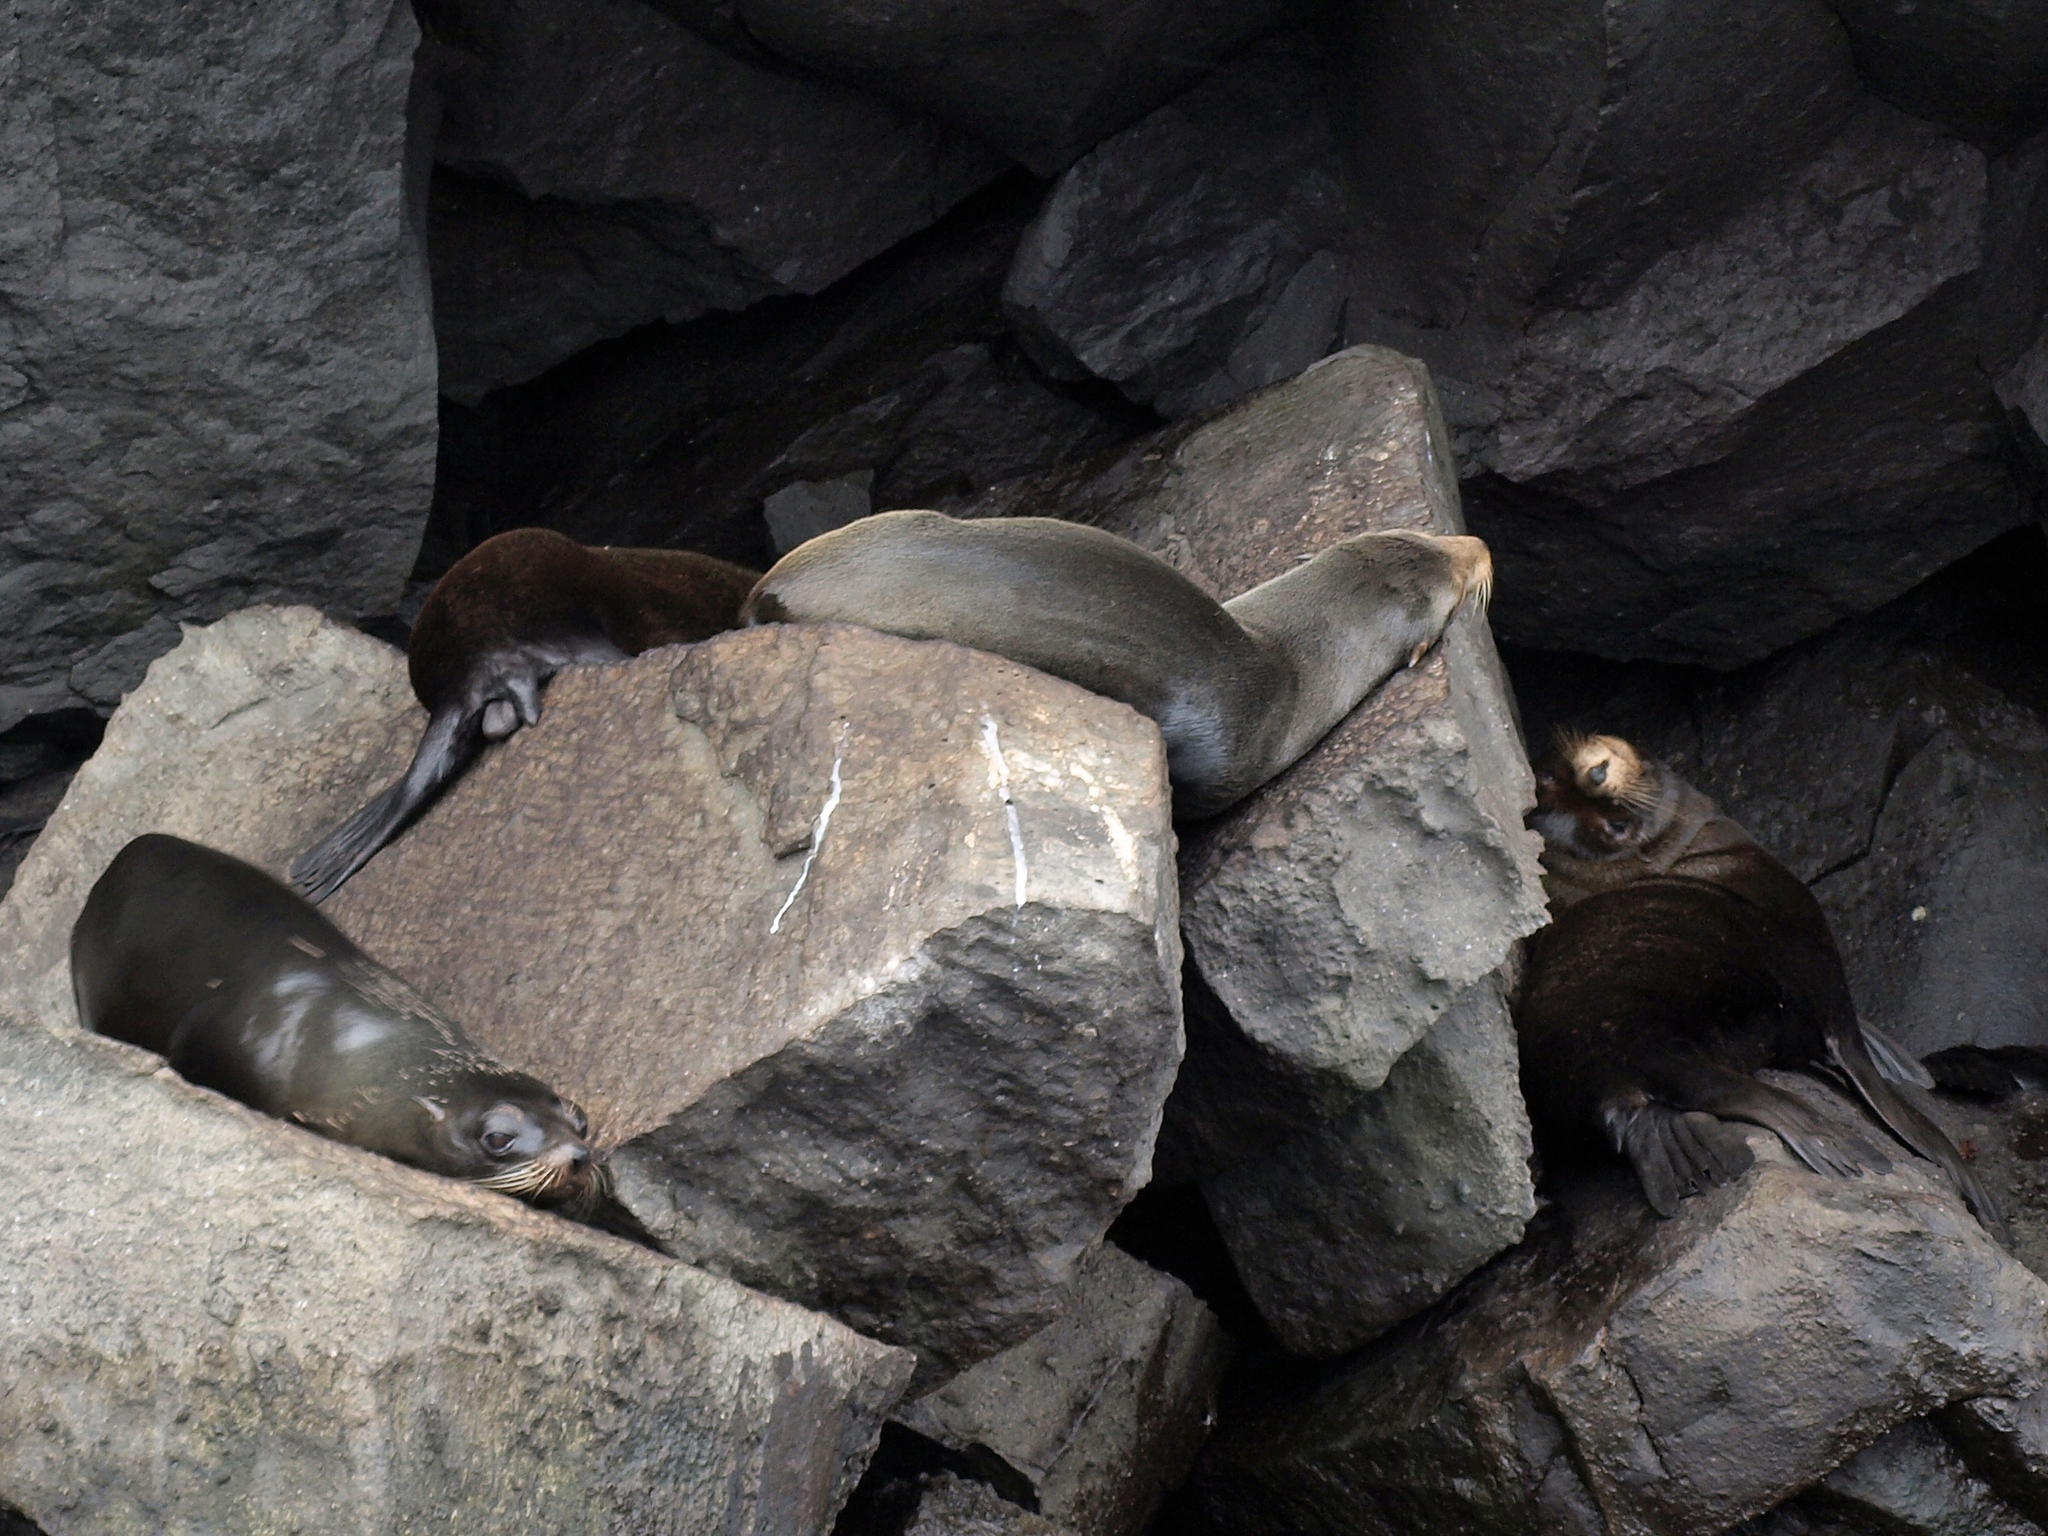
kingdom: Animalia
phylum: Chordata
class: Mammalia
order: Carnivora
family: Otariidae
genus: Arctocephalus
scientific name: Arctocephalus galapagoensis
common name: Galapagos fur seal
